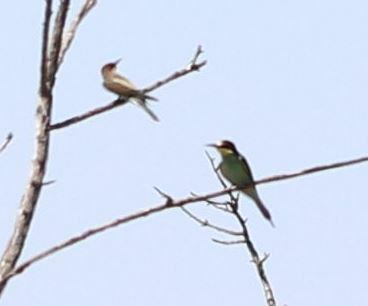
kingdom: Animalia
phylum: Chordata
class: Aves
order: Coraciiformes
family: Meropidae
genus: Merops
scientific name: Merops apiaster
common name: European bee-eater
